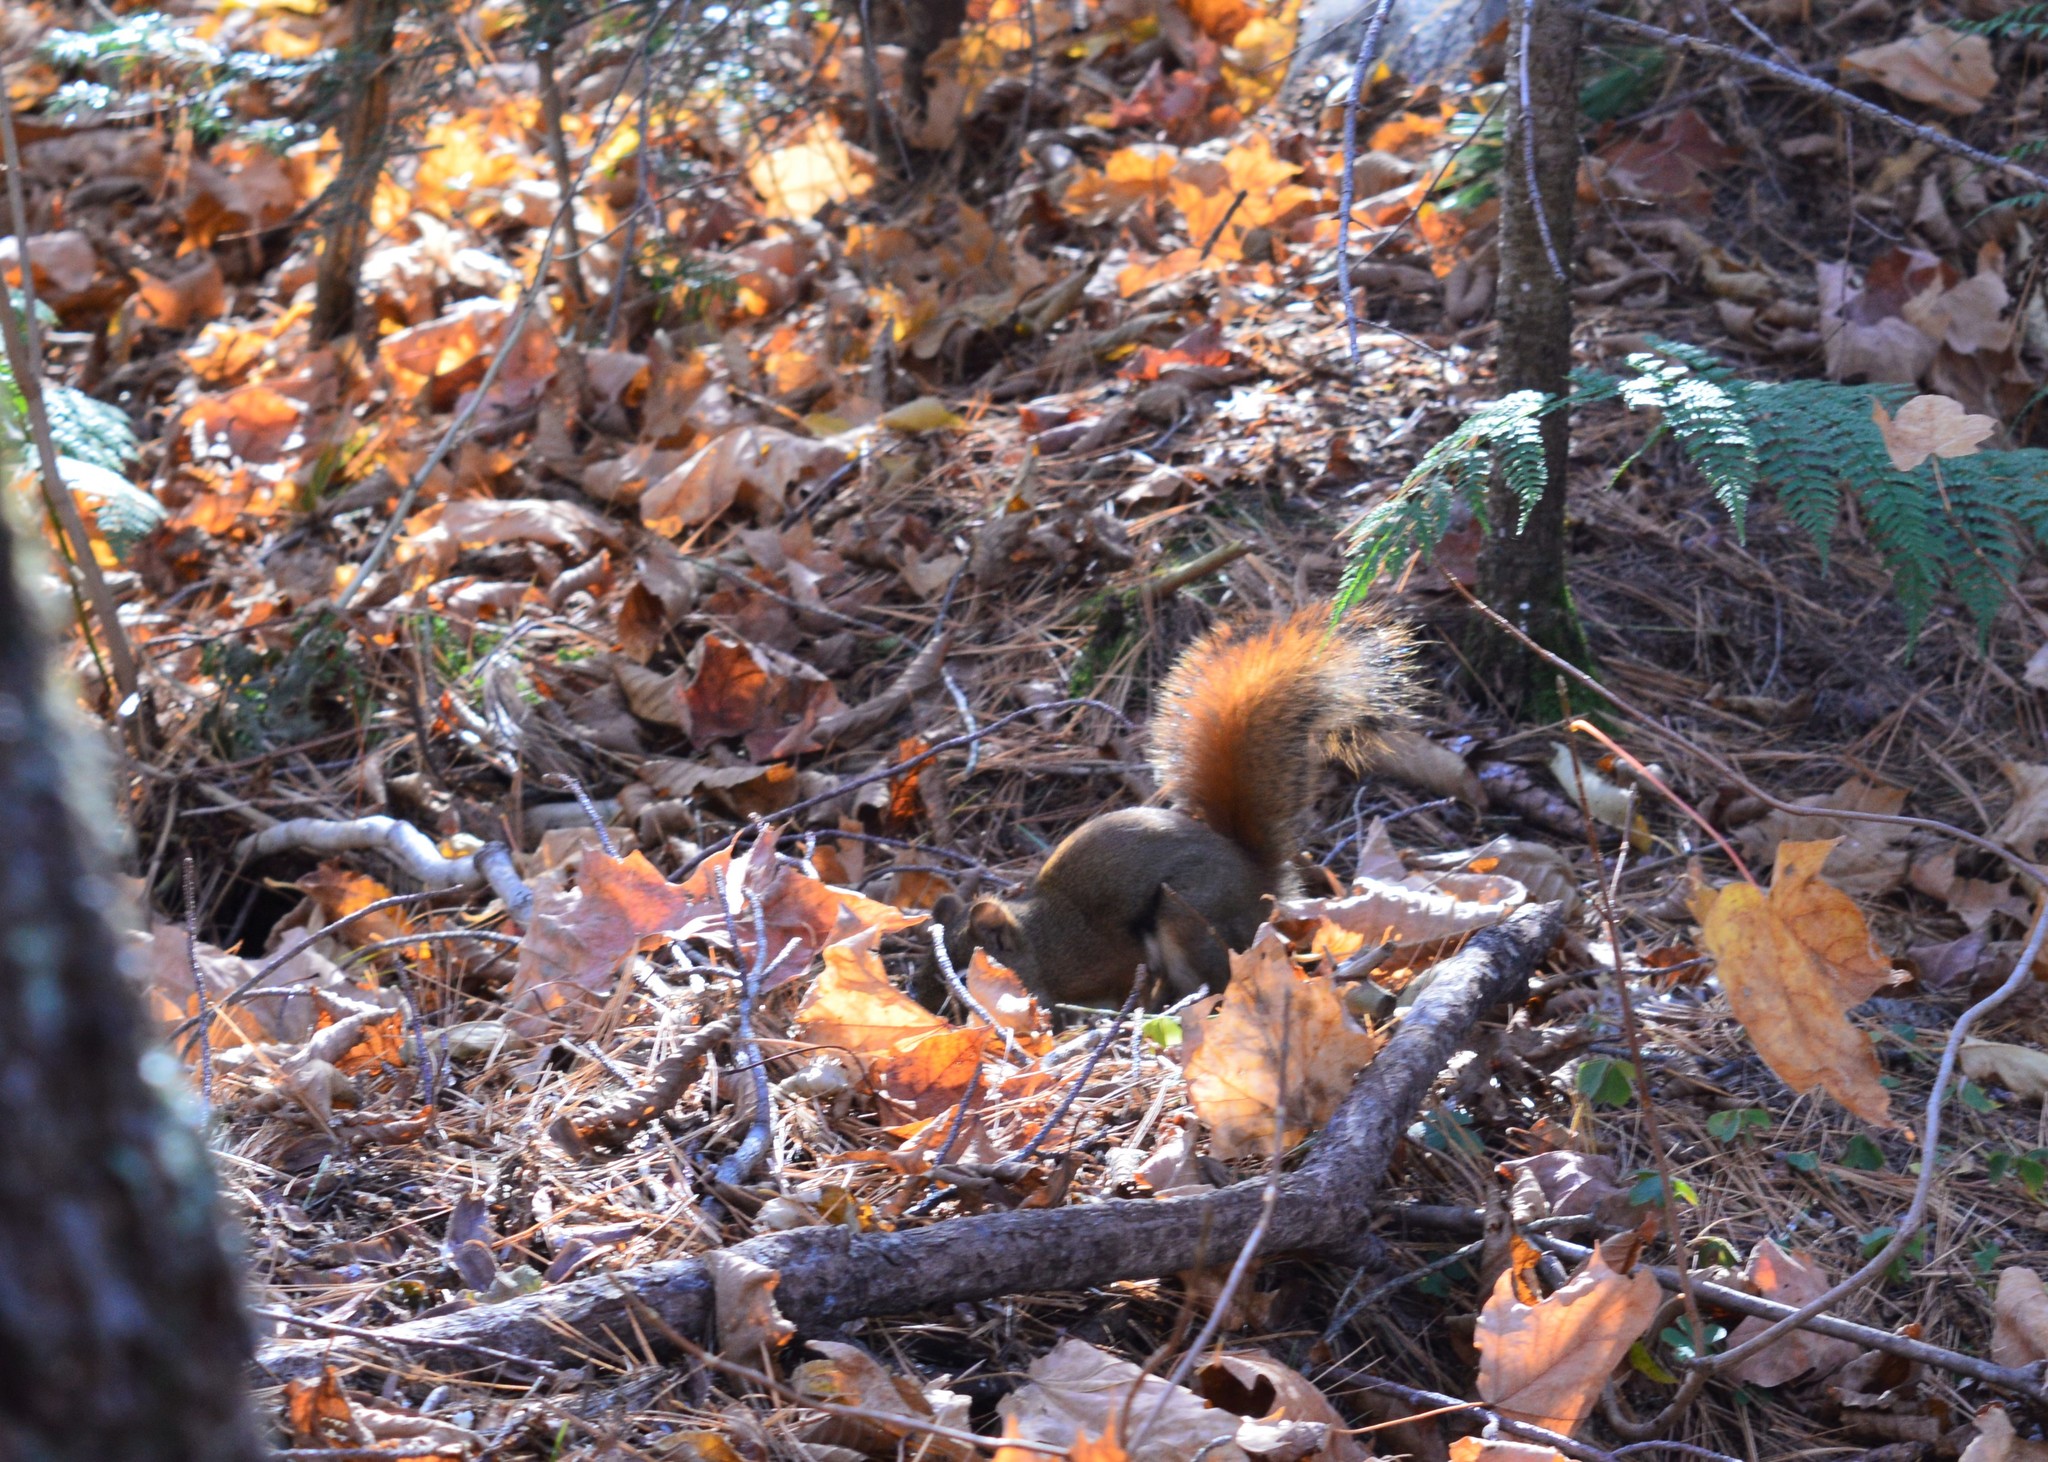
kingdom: Animalia
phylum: Chordata
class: Mammalia
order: Rodentia
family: Sciuridae
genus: Tamiasciurus
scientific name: Tamiasciurus hudsonicus
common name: Red squirrel
